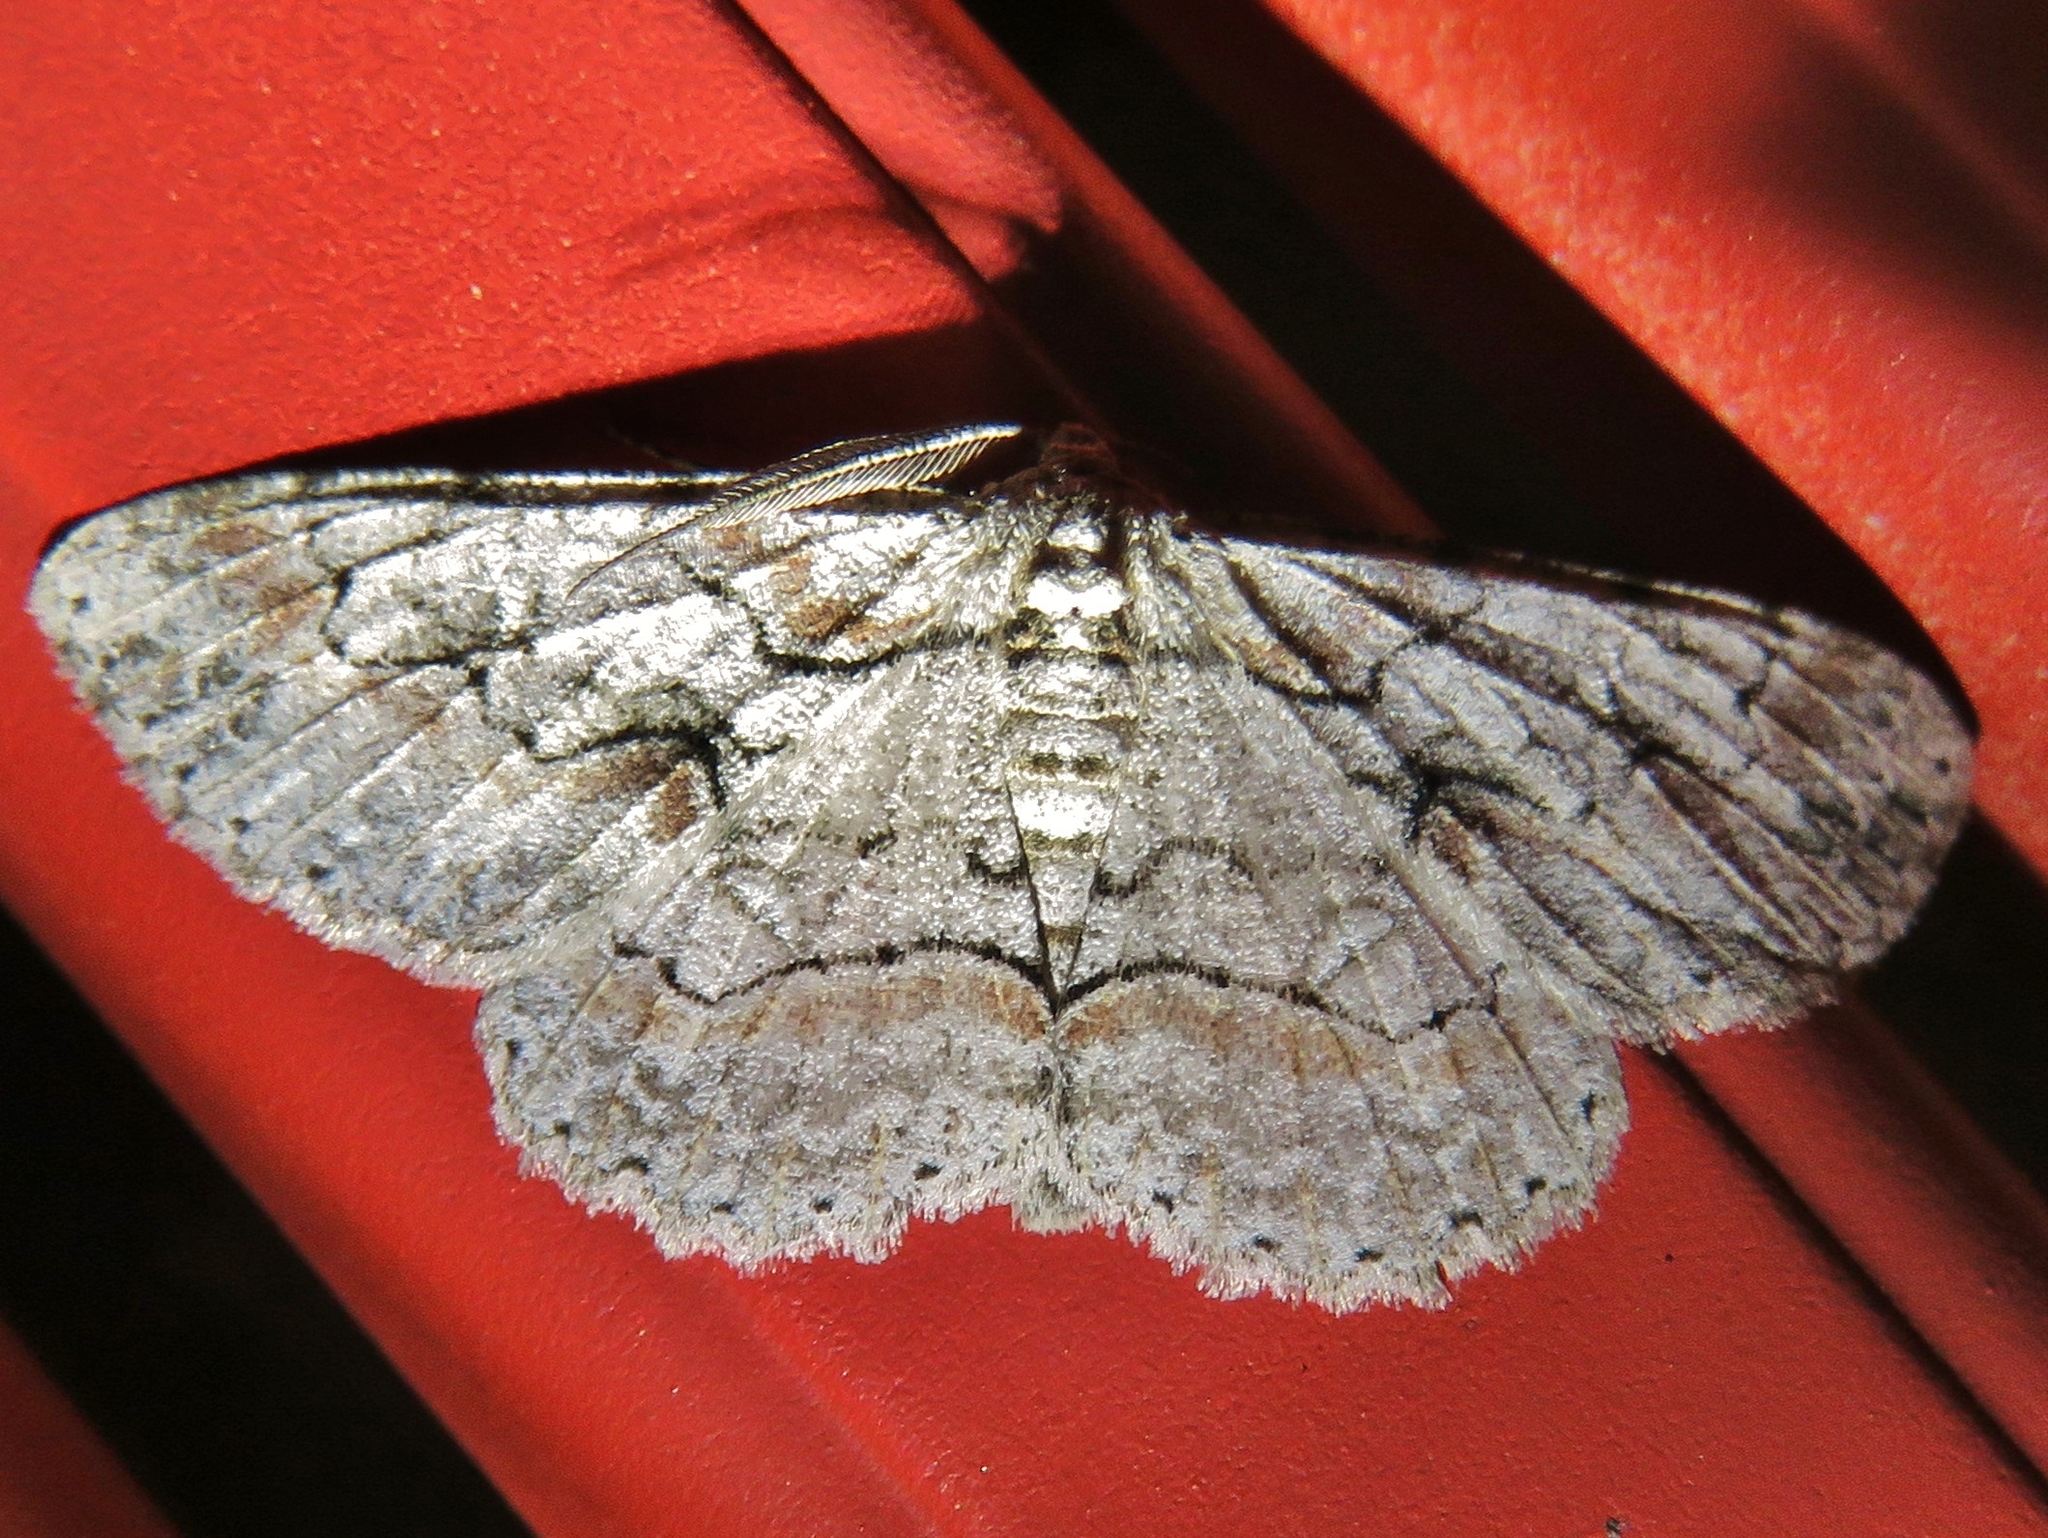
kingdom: Animalia
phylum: Arthropoda
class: Insecta
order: Lepidoptera
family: Geometridae
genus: Iridopsis
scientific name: Iridopsis defectaria
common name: Brown-shaded gray
